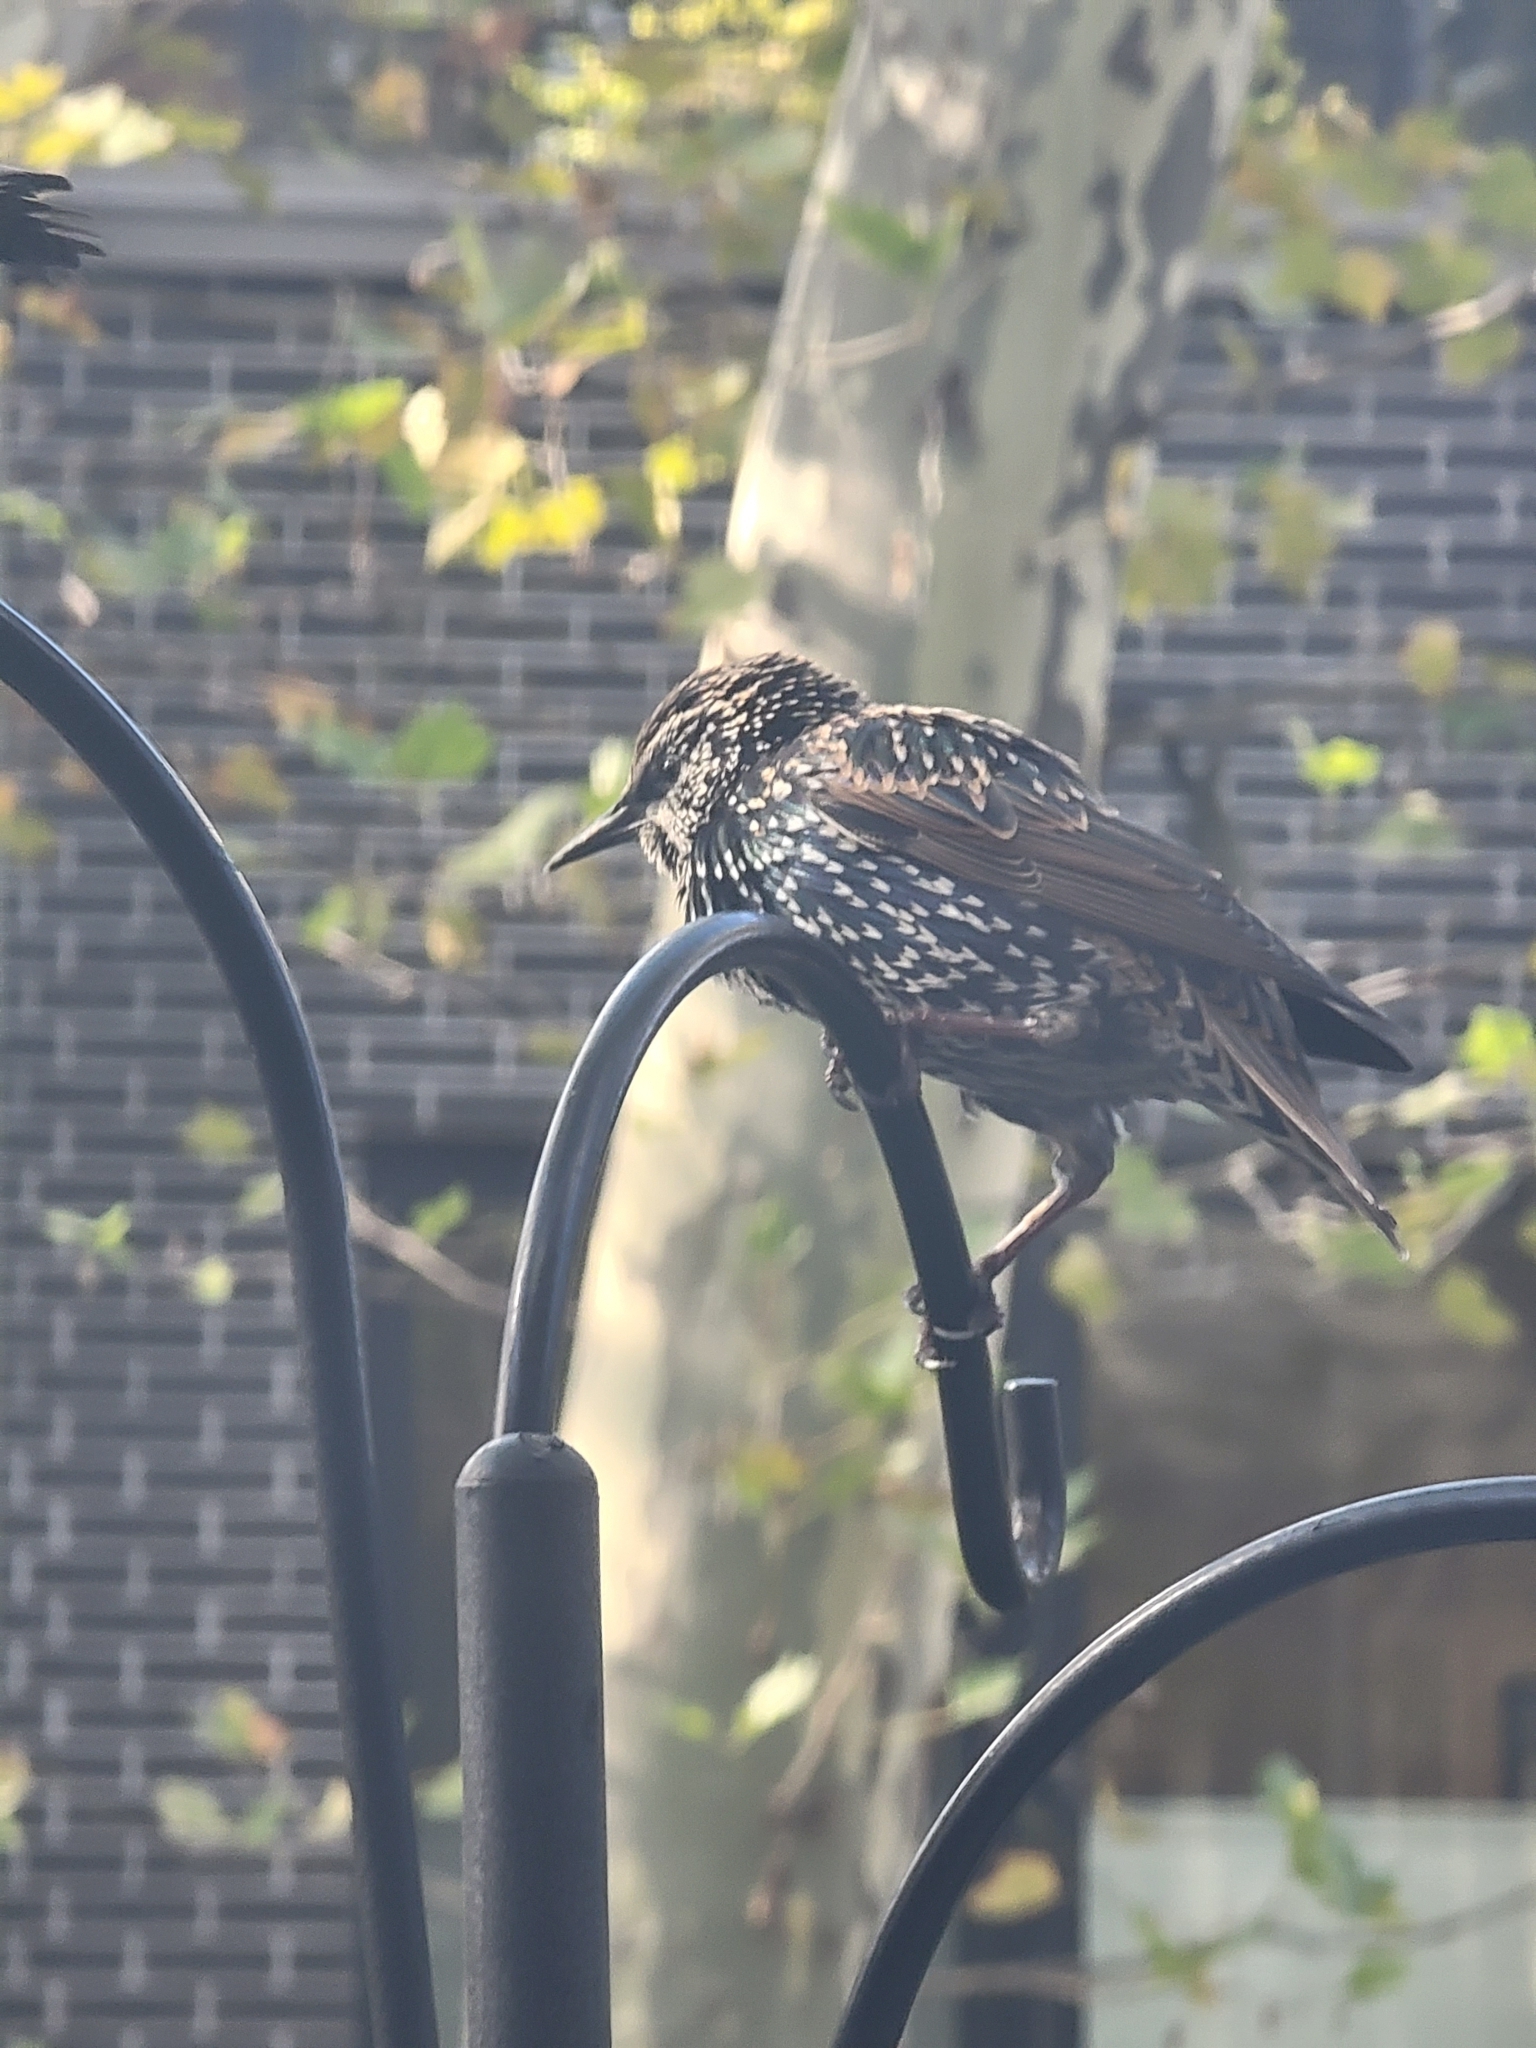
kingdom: Animalia
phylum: Chordata
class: Aves
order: Passeriformes
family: Sturnidae
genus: Sturnus
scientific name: Sturnus vulgaris
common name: Common starling
